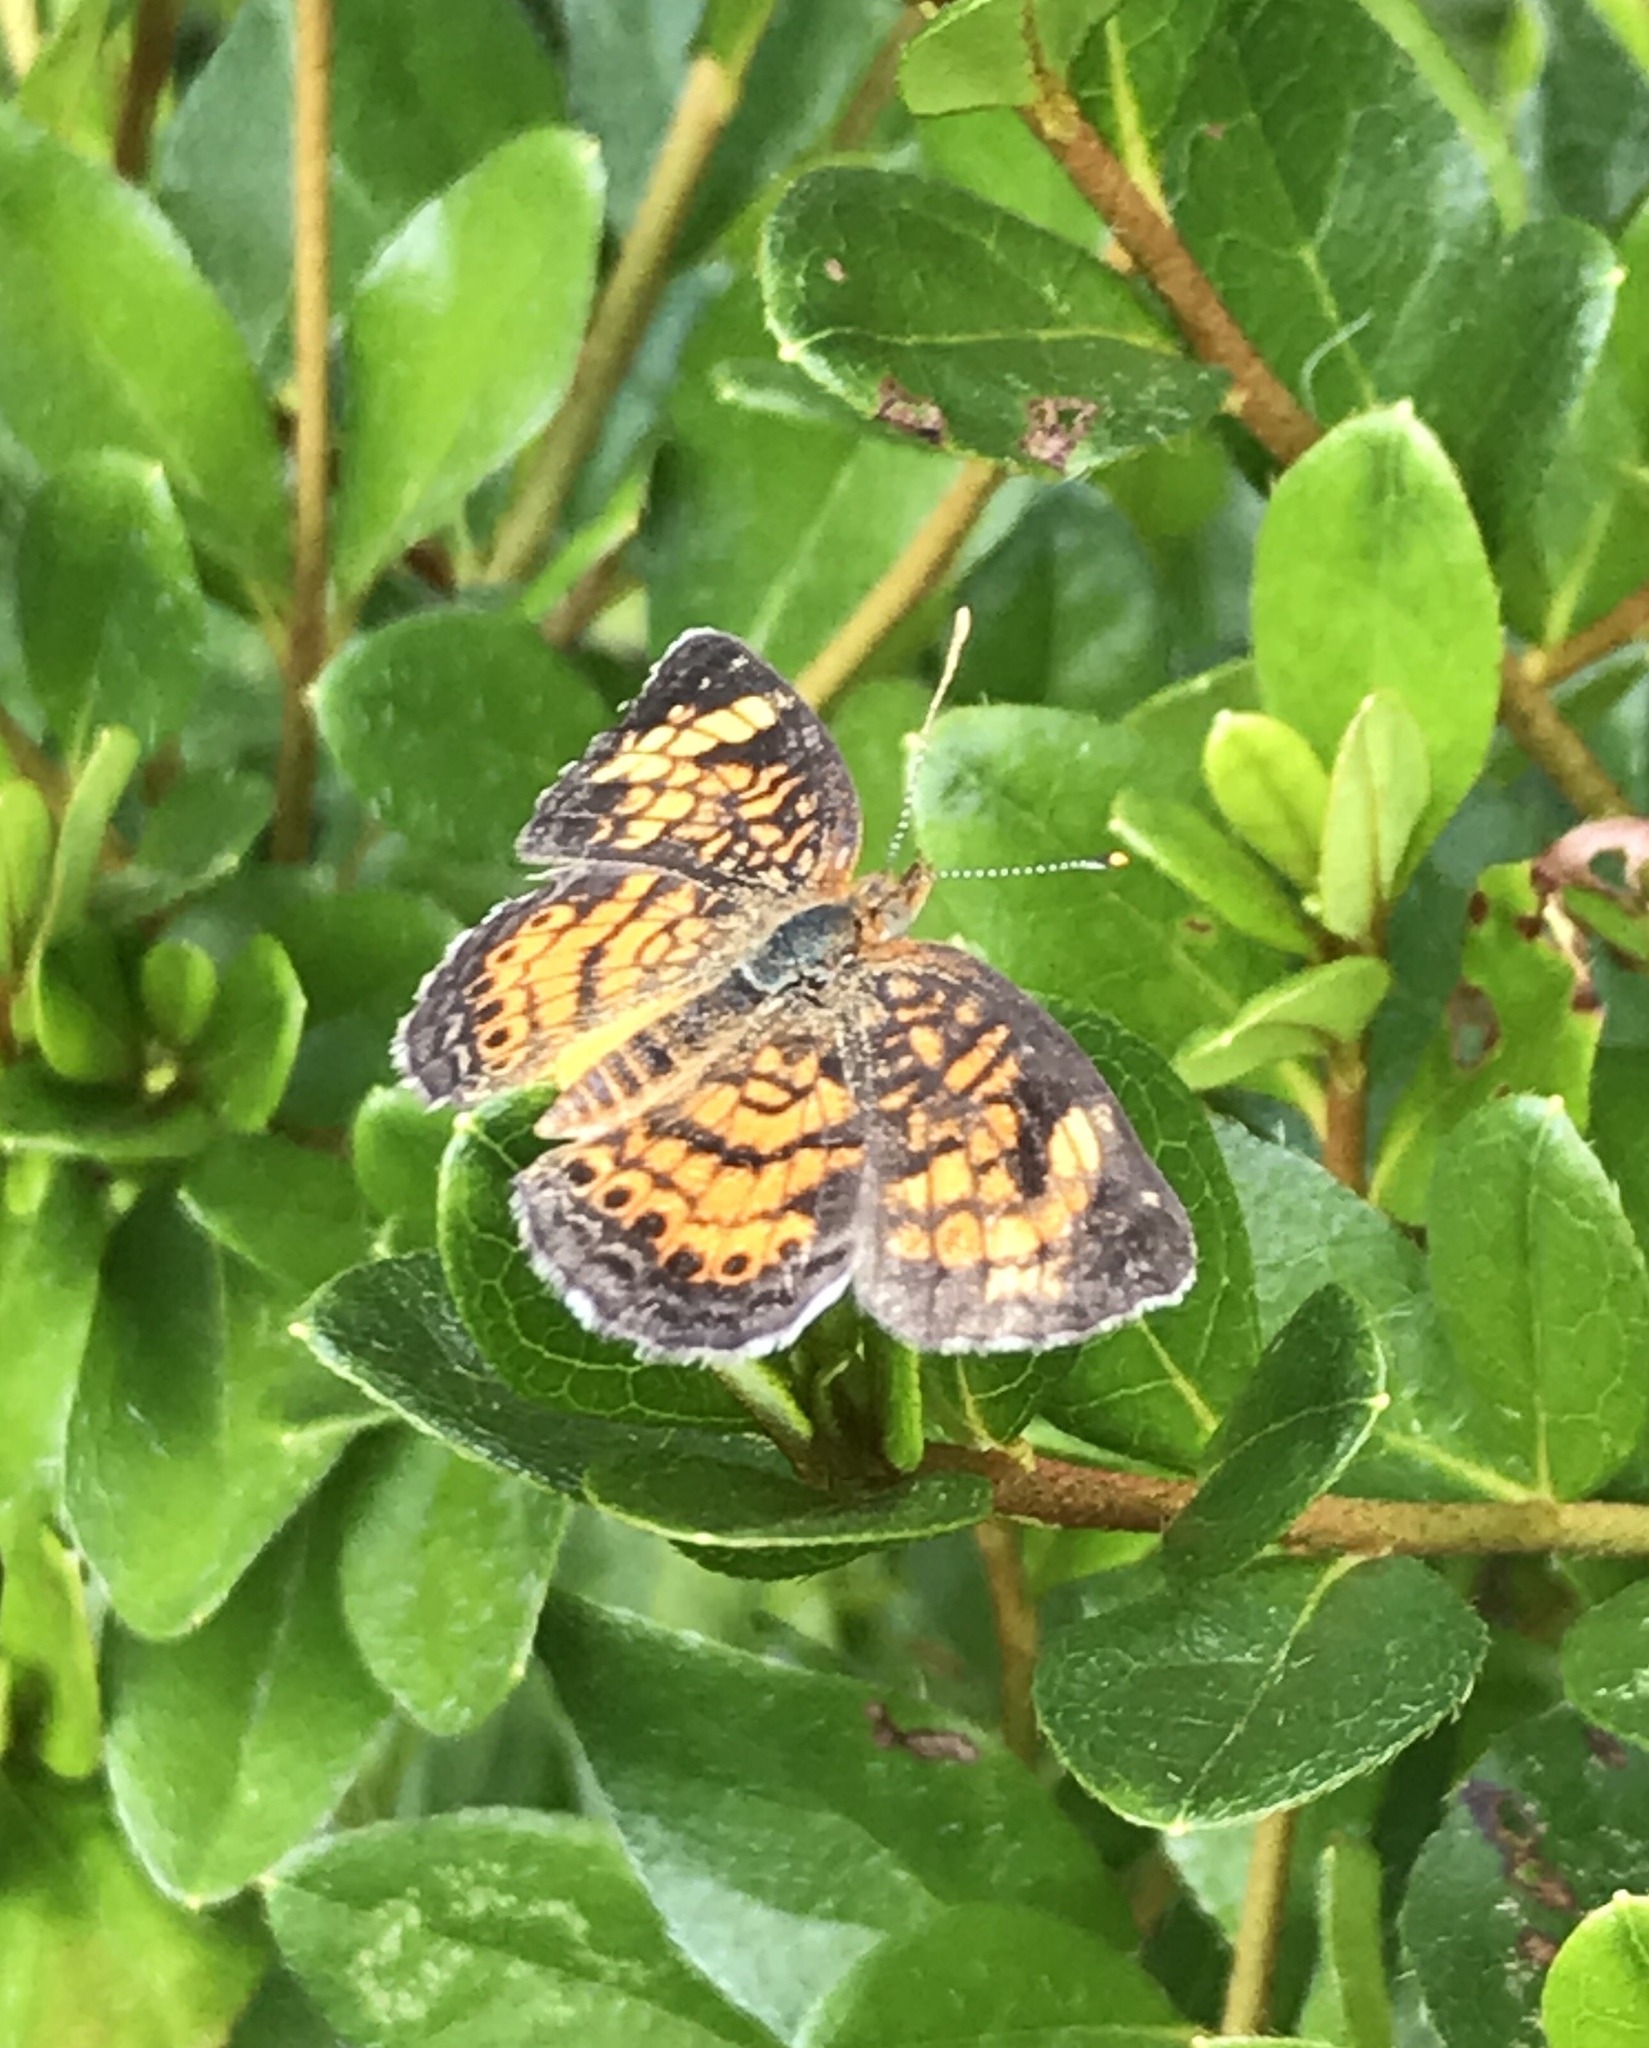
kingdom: Animalia
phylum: Arthropoda
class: Insecta
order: Lepidoptera
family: Nymphalidae
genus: Phyciodes
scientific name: Phyciodes tharos
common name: Pearl crescent
